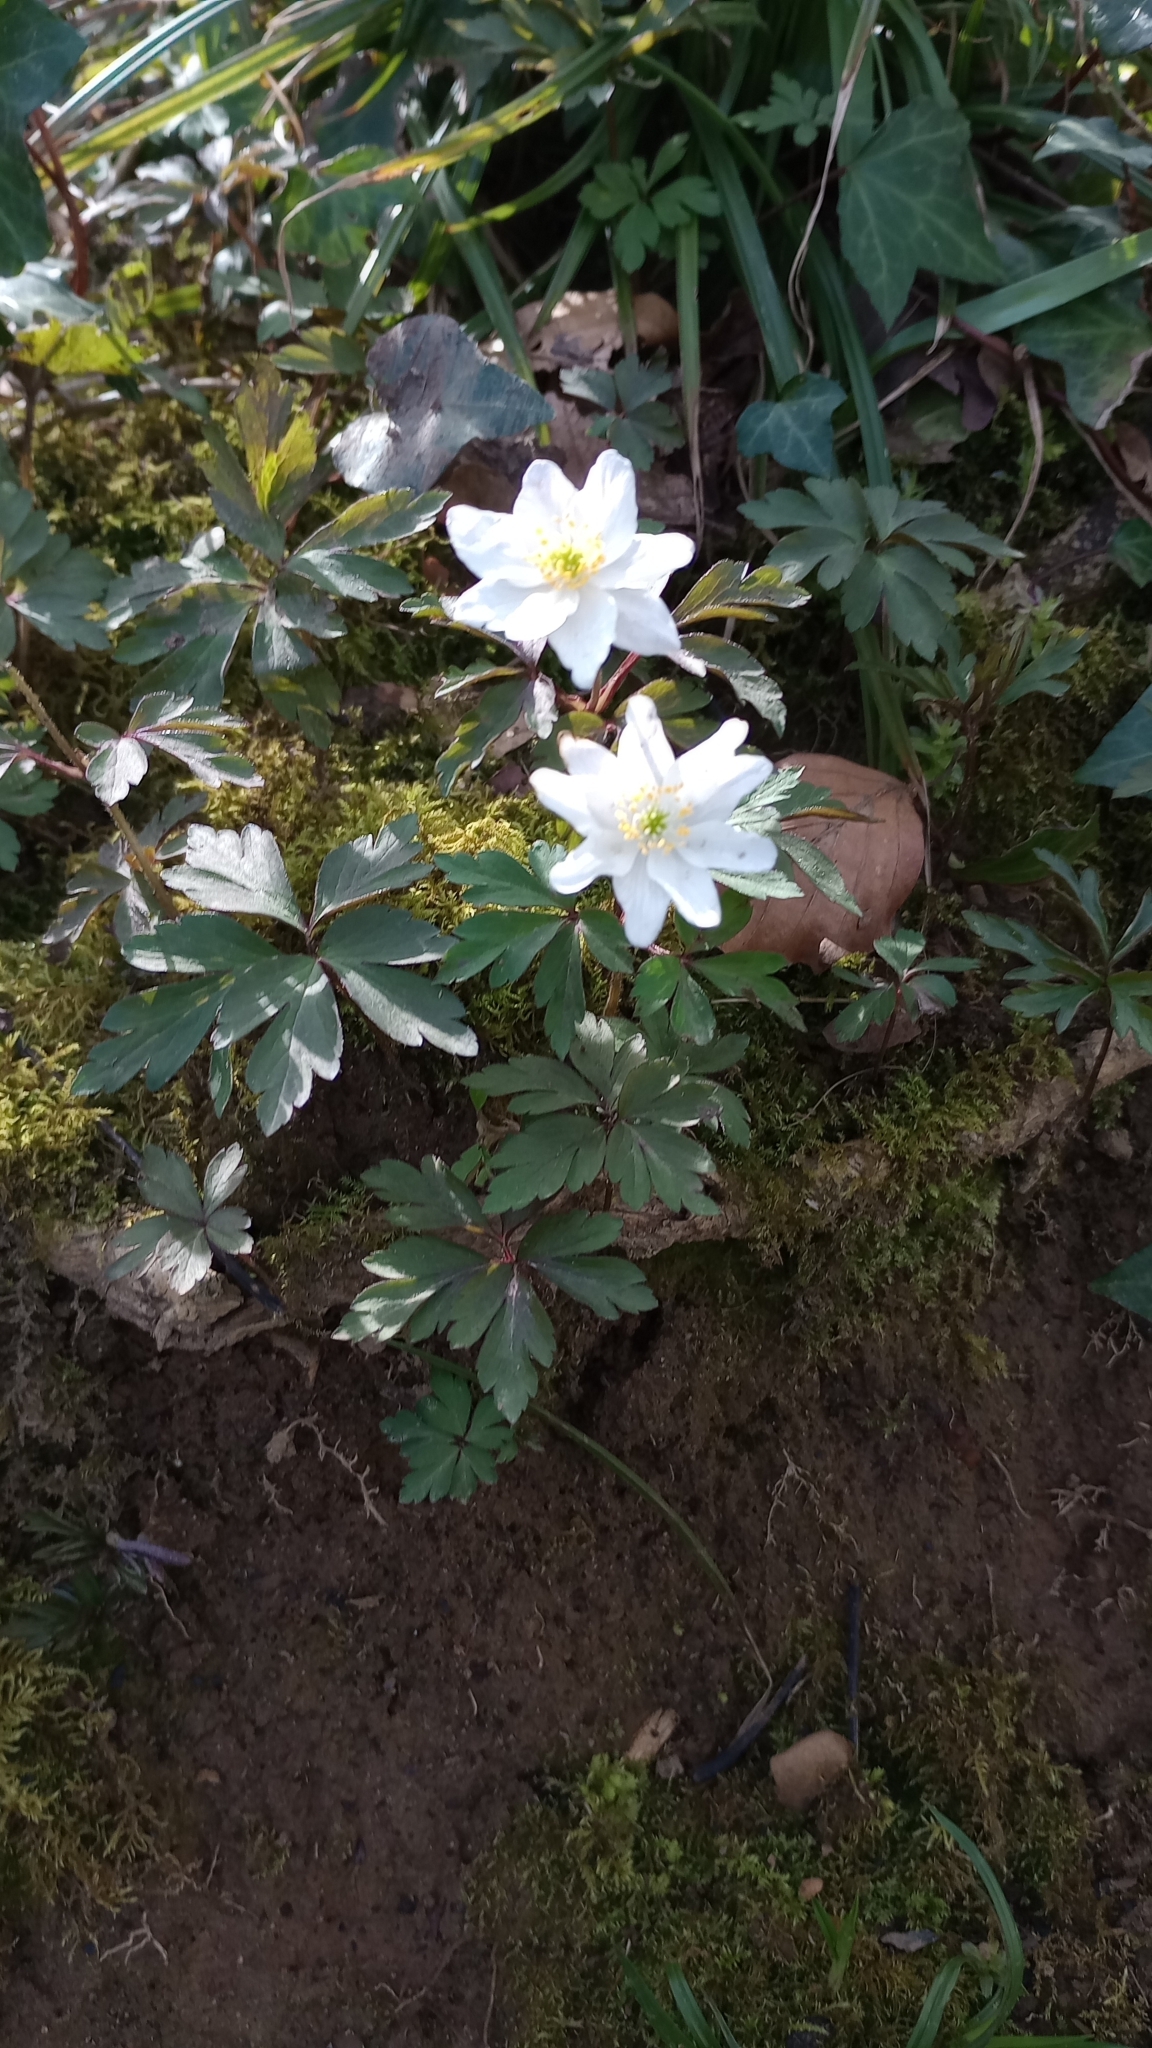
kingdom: Plantae
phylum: Tracheophyta
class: Magnoliopsida
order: Ranunculales
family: Ranunculaceae
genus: Anemone
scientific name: Anemone nemorosa
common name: Wood anemone
